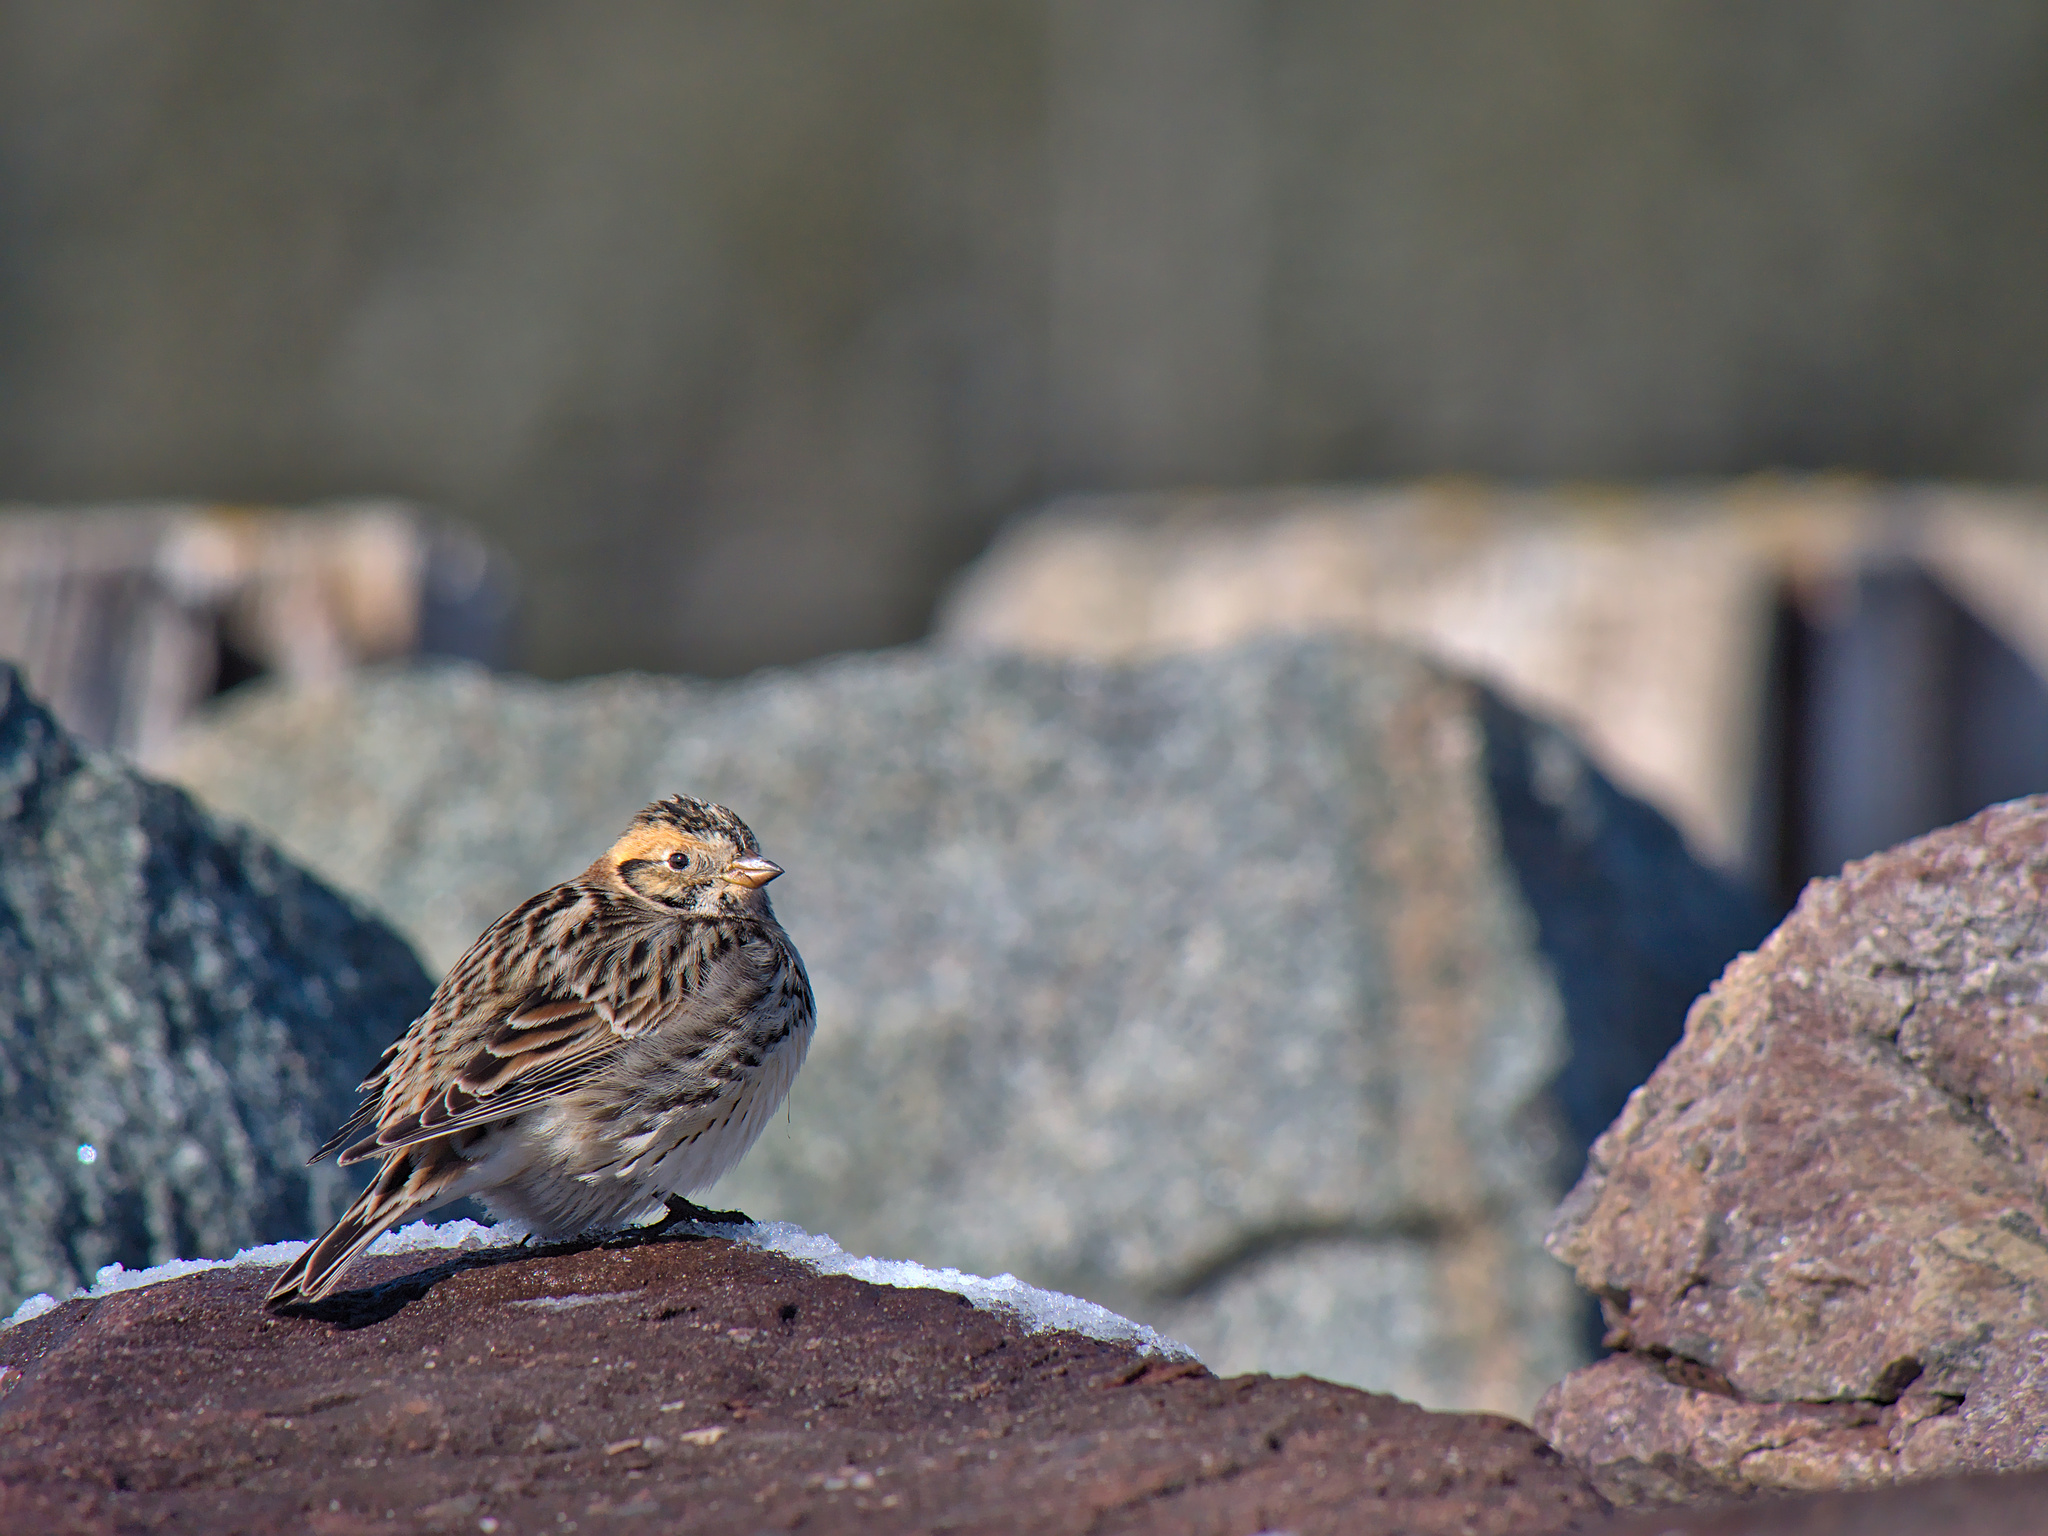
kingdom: Animalia
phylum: Chordata
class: Aves
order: Passeriformes
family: Calcariidae
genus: Calcarius
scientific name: Calcarius lapponicus
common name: Lapland longspur
